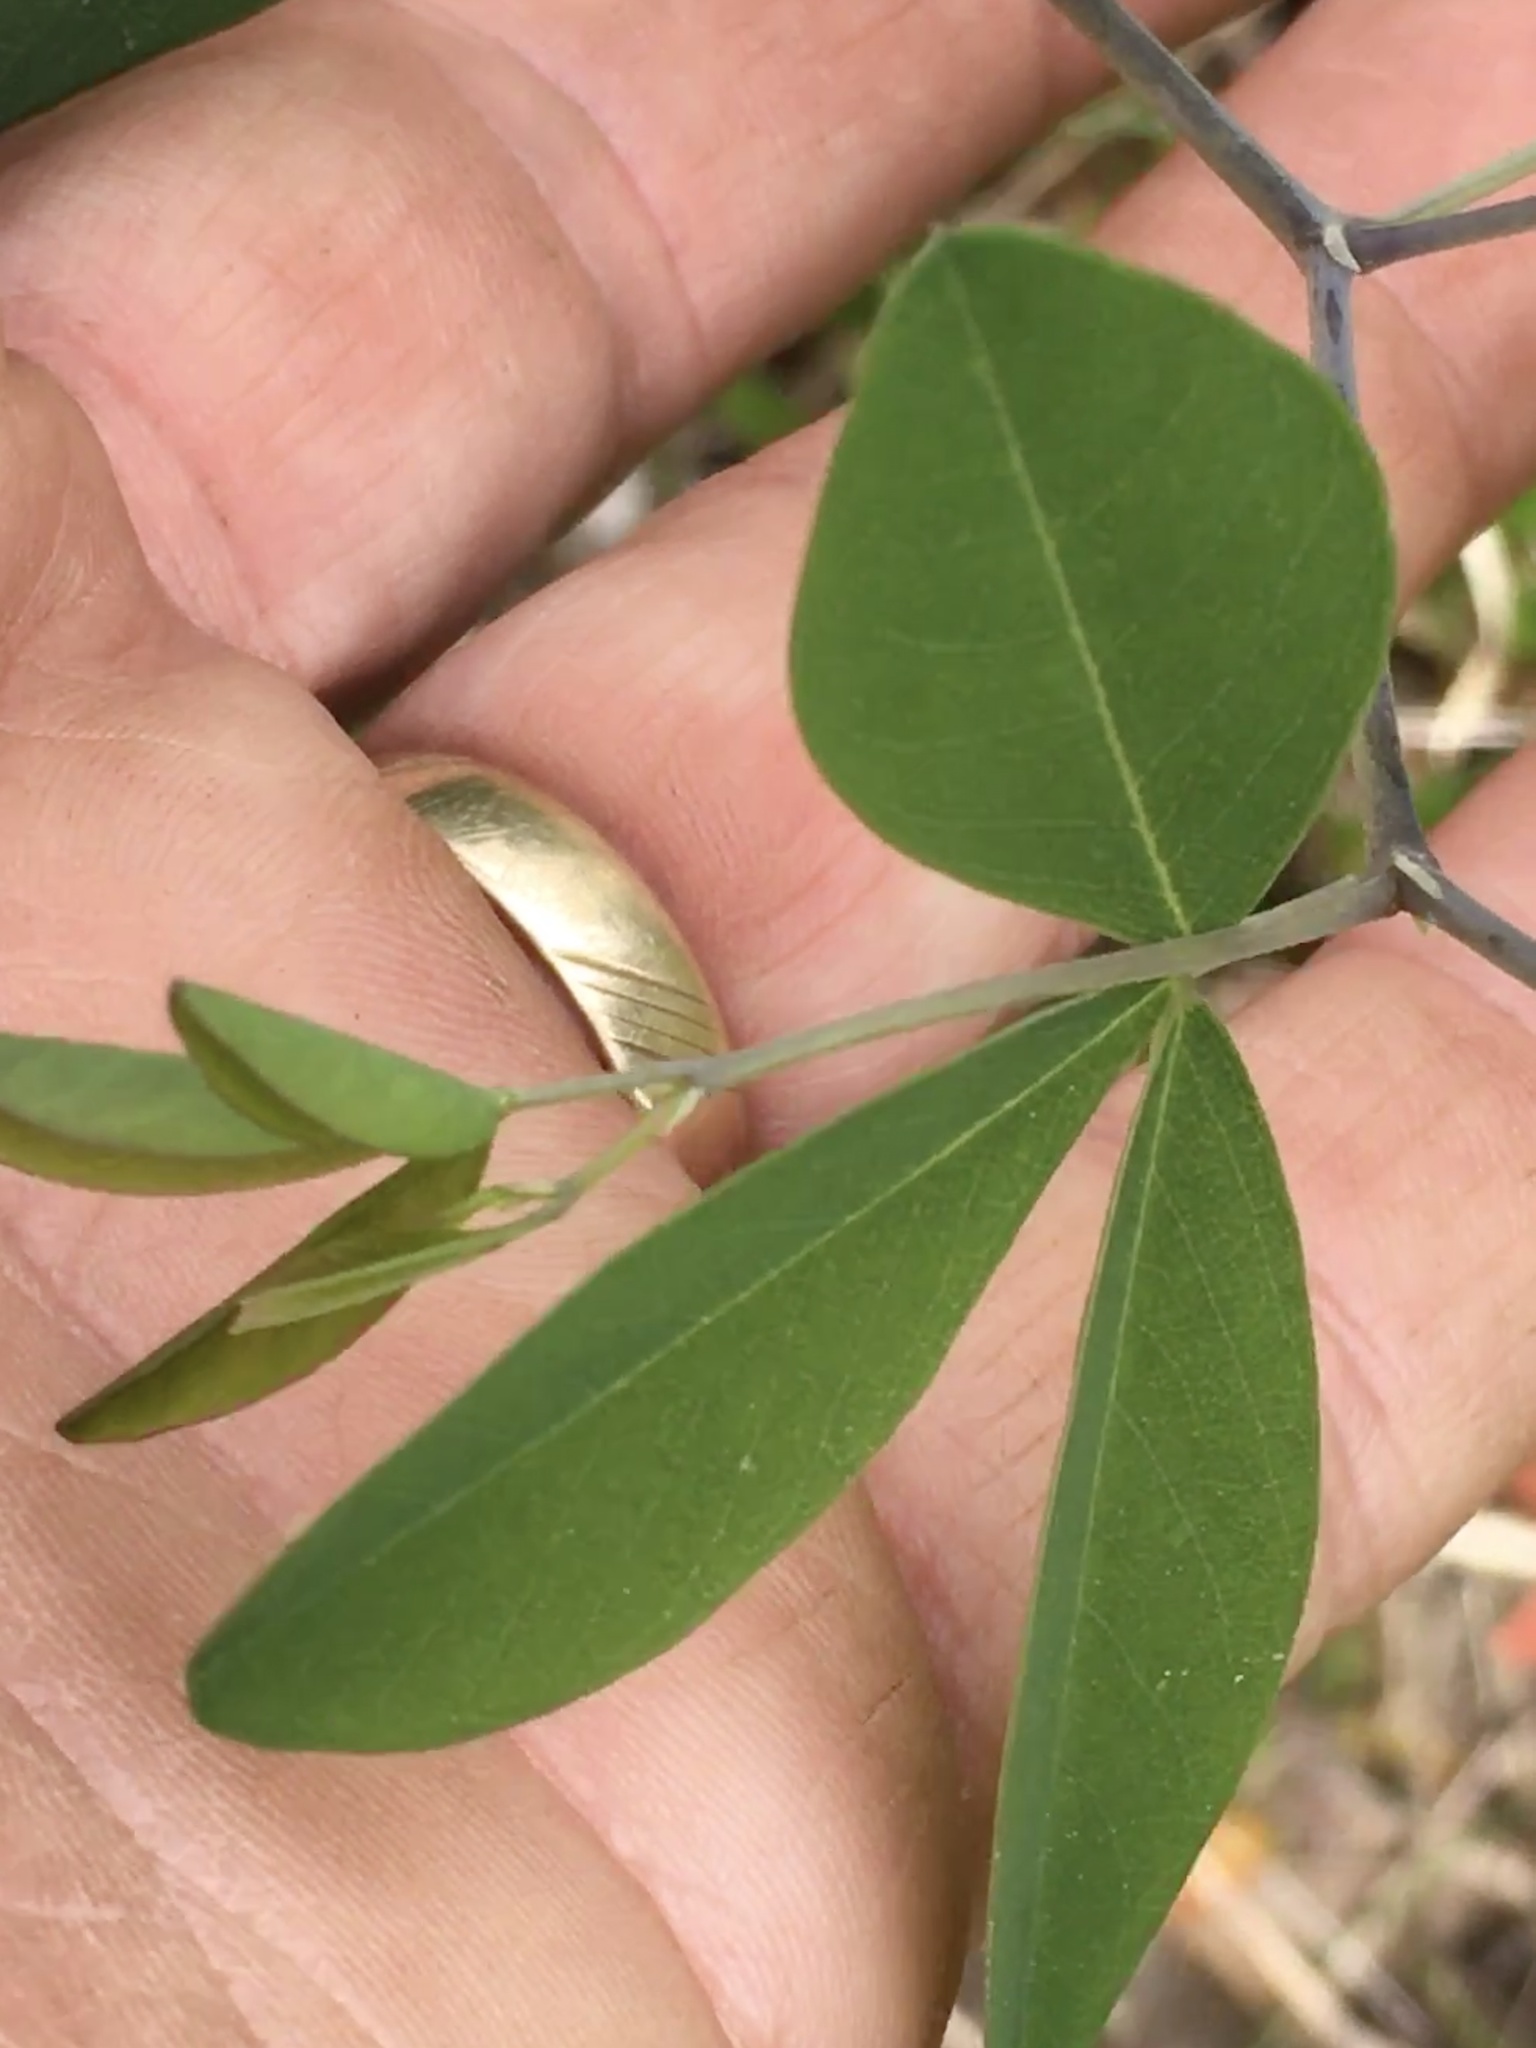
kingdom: Plantae
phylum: Tracheophyta
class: Magnoliopsida
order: Fabales
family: Fabaceae
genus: Baptisia
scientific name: Baptisia alba
